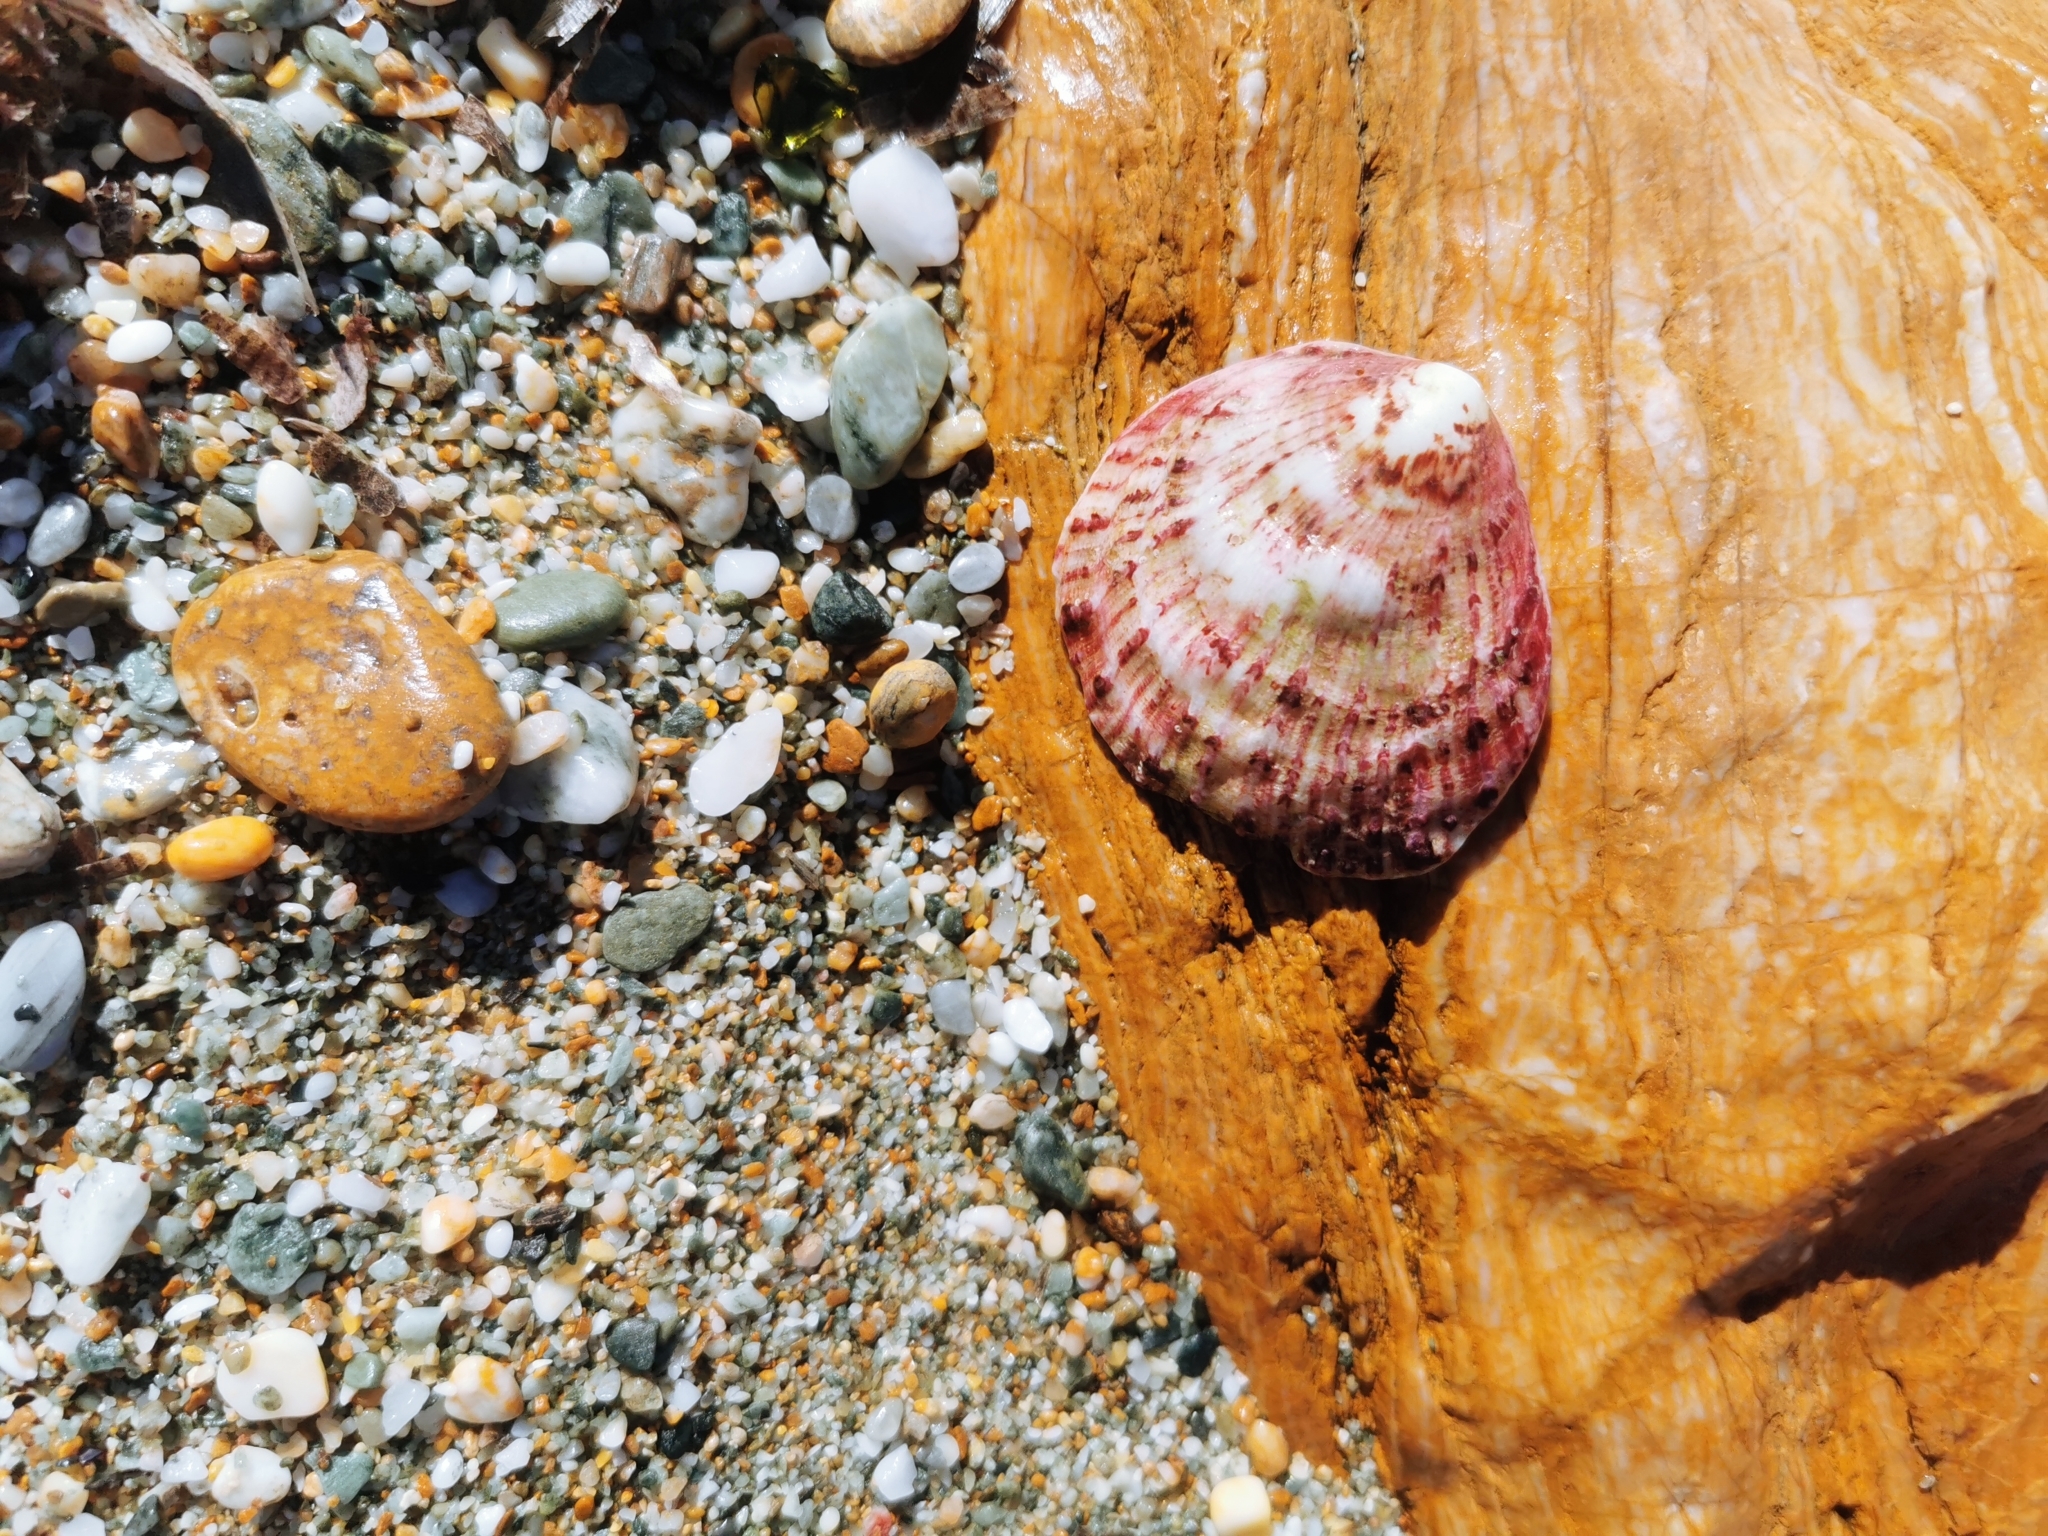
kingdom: Animalia
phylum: Mollusca
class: Bivalvia
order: Pectinida
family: Spondylidae
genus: Spondylus
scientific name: Spondylus gaederopus
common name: European thorny oyster
